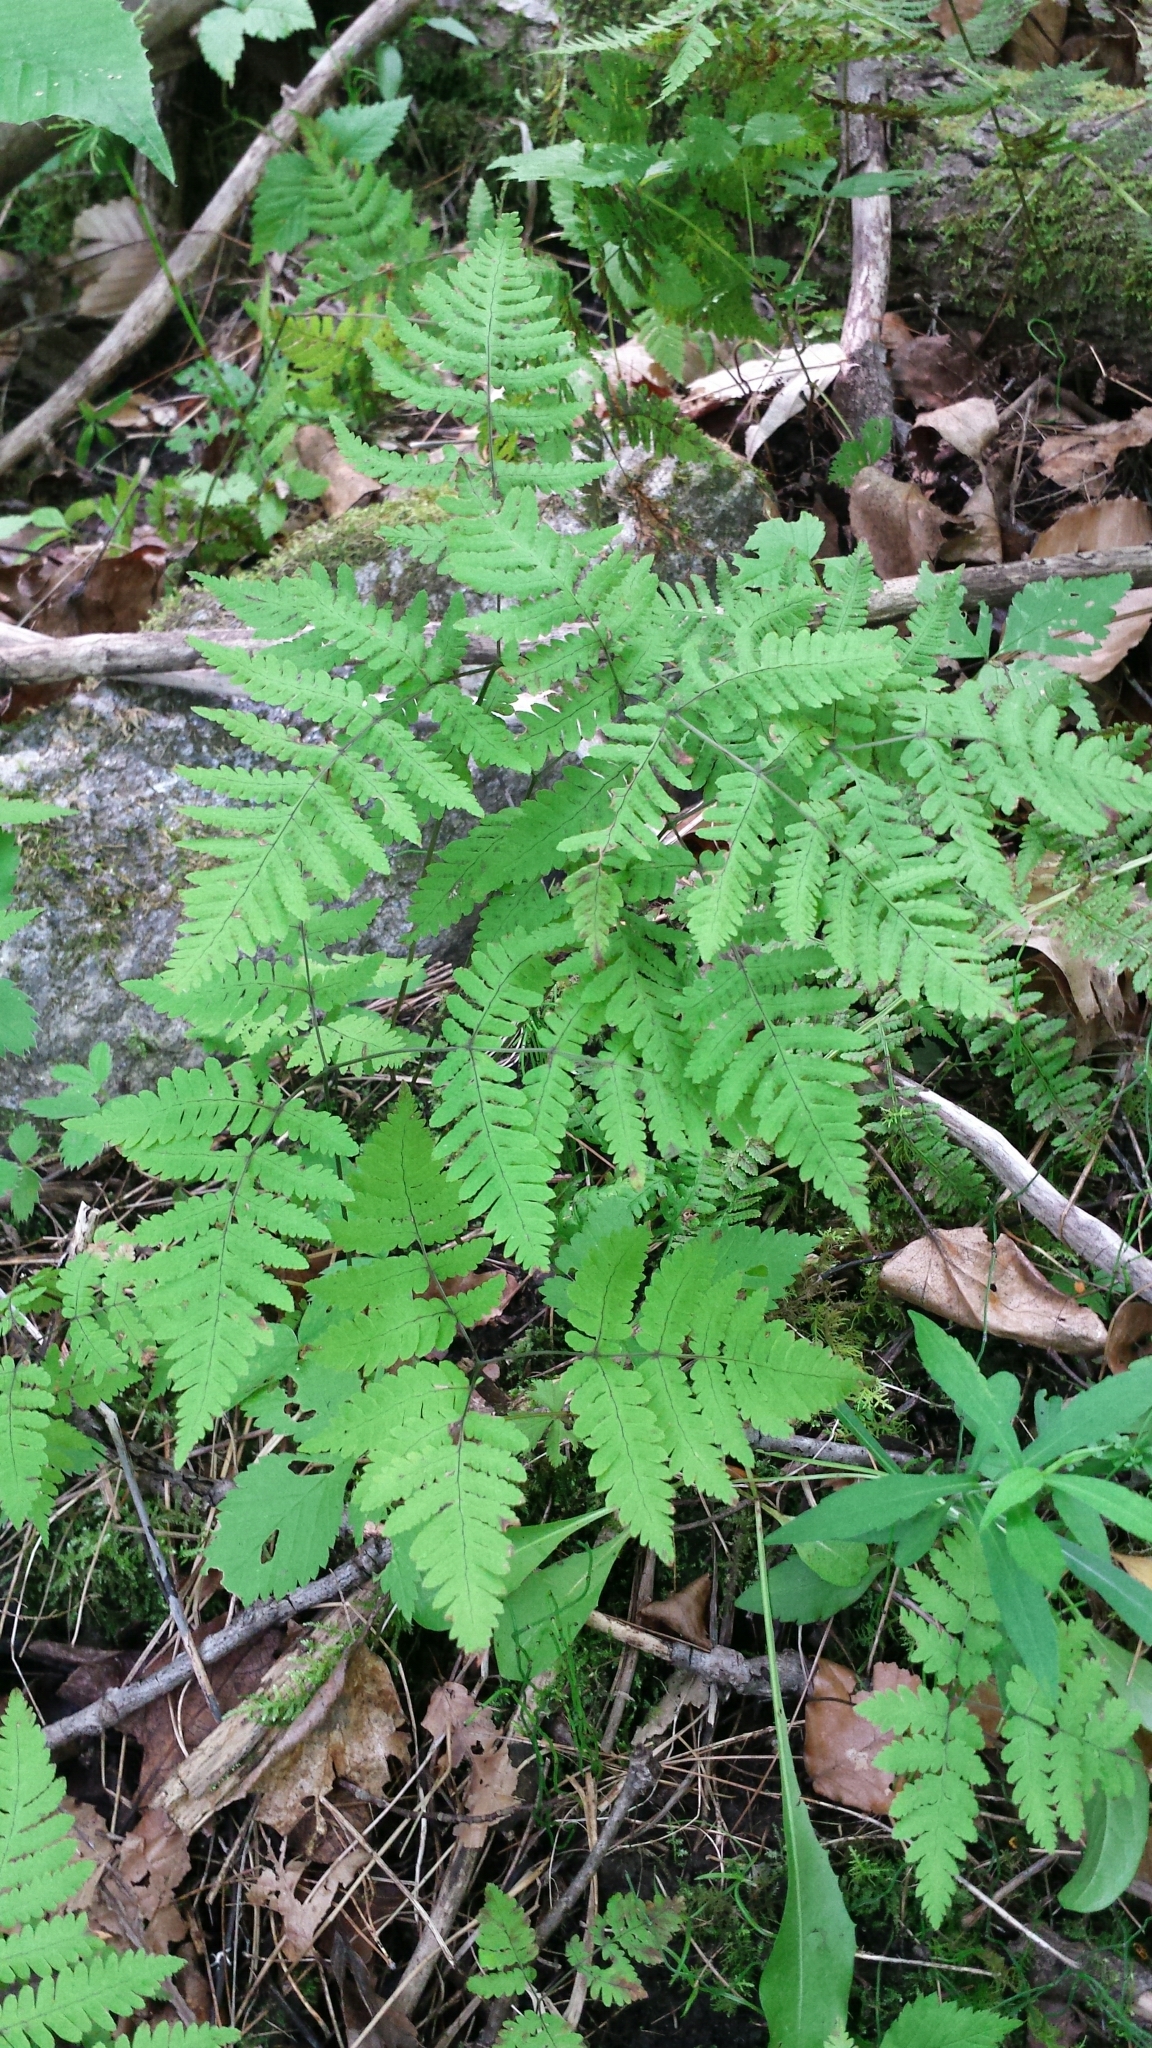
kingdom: Plantae
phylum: Tracheophyta
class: Polypodiopsida
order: Polypodiales
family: Cystopteridaceae
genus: Gymnocarpium
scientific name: Gymnocarpium dryopteris
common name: Oak fern
